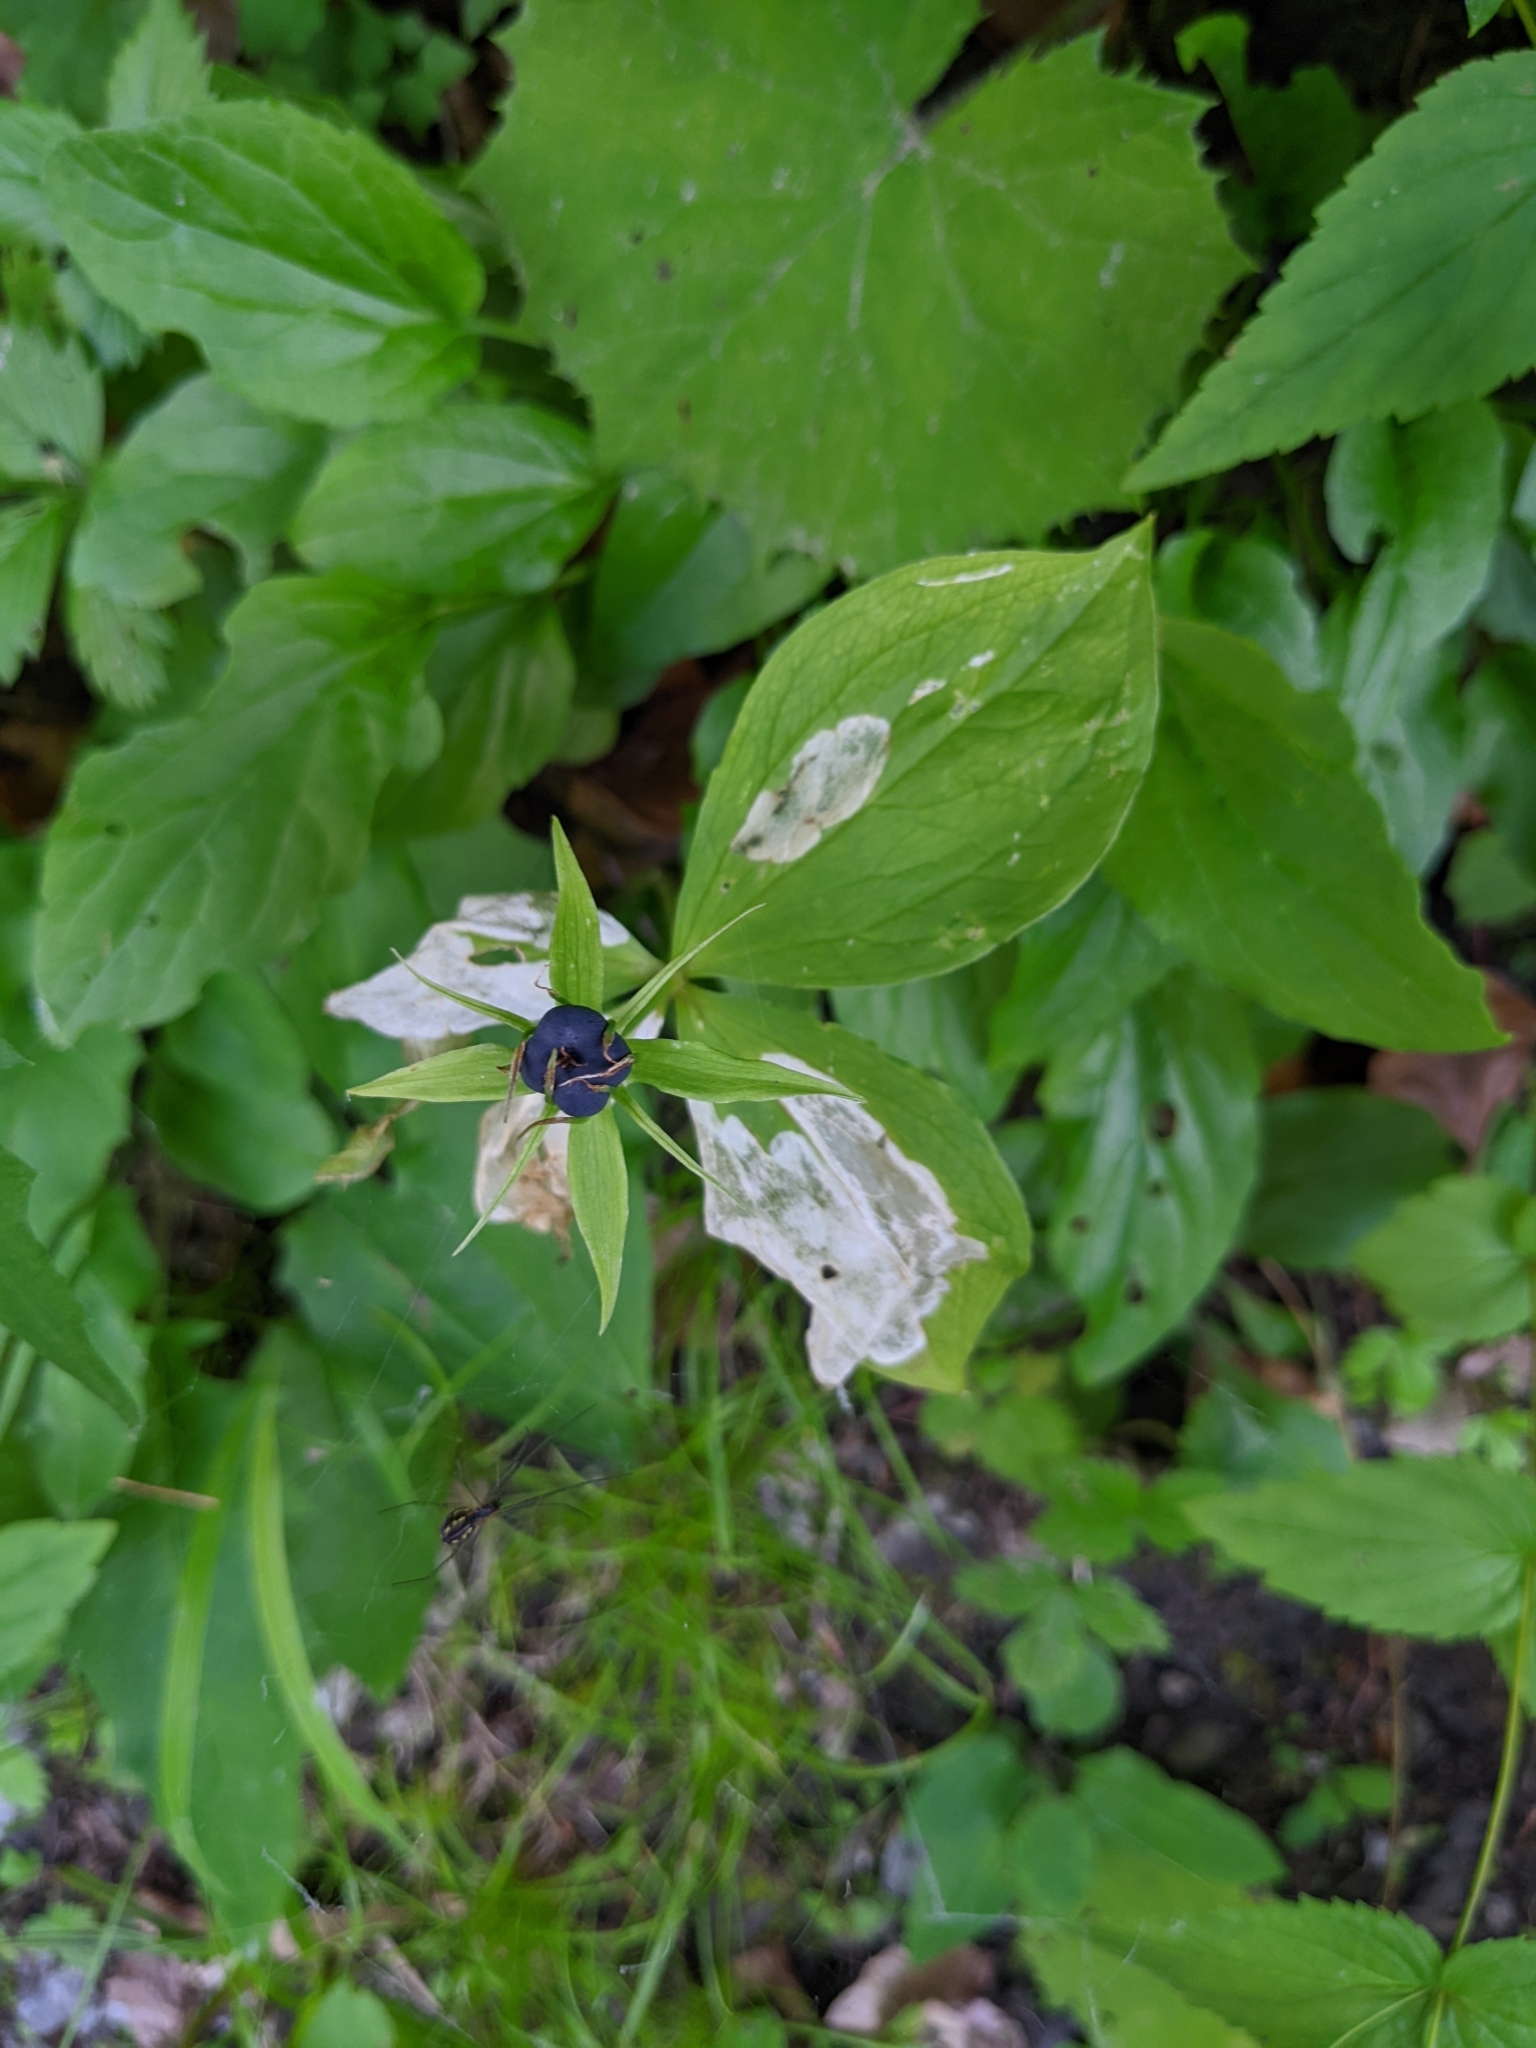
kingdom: Plantae
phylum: Tracheophyta
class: Liliopsida
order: Liliales
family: Melanthiaceae
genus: Paris
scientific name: Paris quadrifolia
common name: Herb-paris
